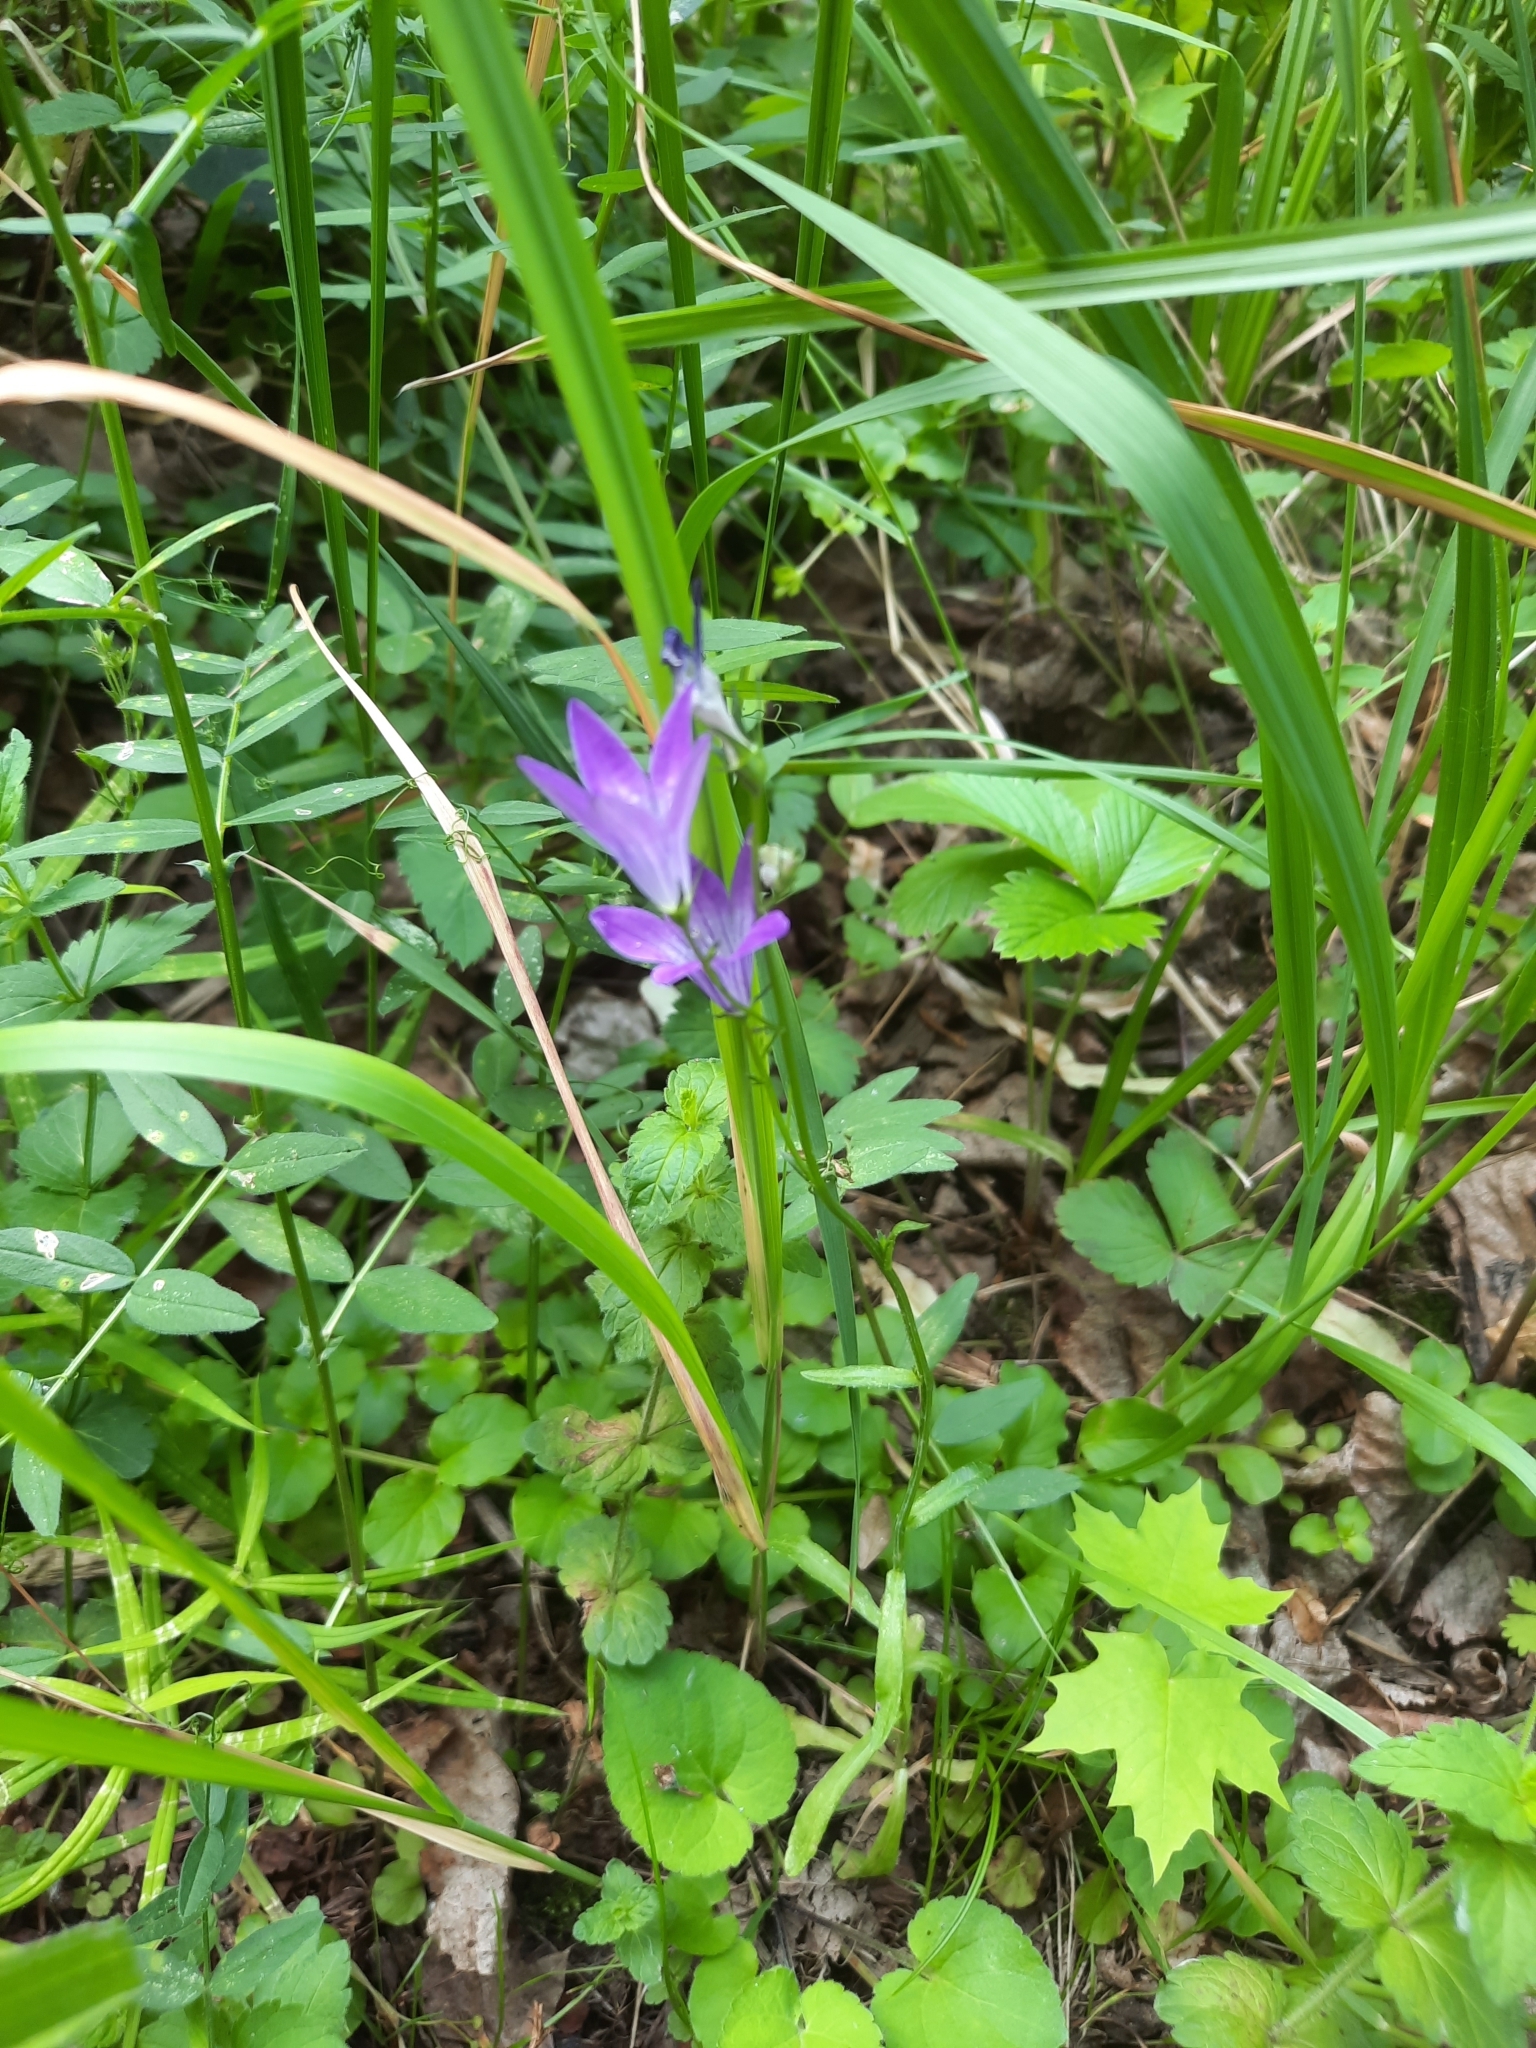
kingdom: Plantae
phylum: Tracheophyta
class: Magnoliopsida
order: Asterales
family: Campanulaceae
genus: Campanula
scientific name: Campanula patula
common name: Spreading bellflower
